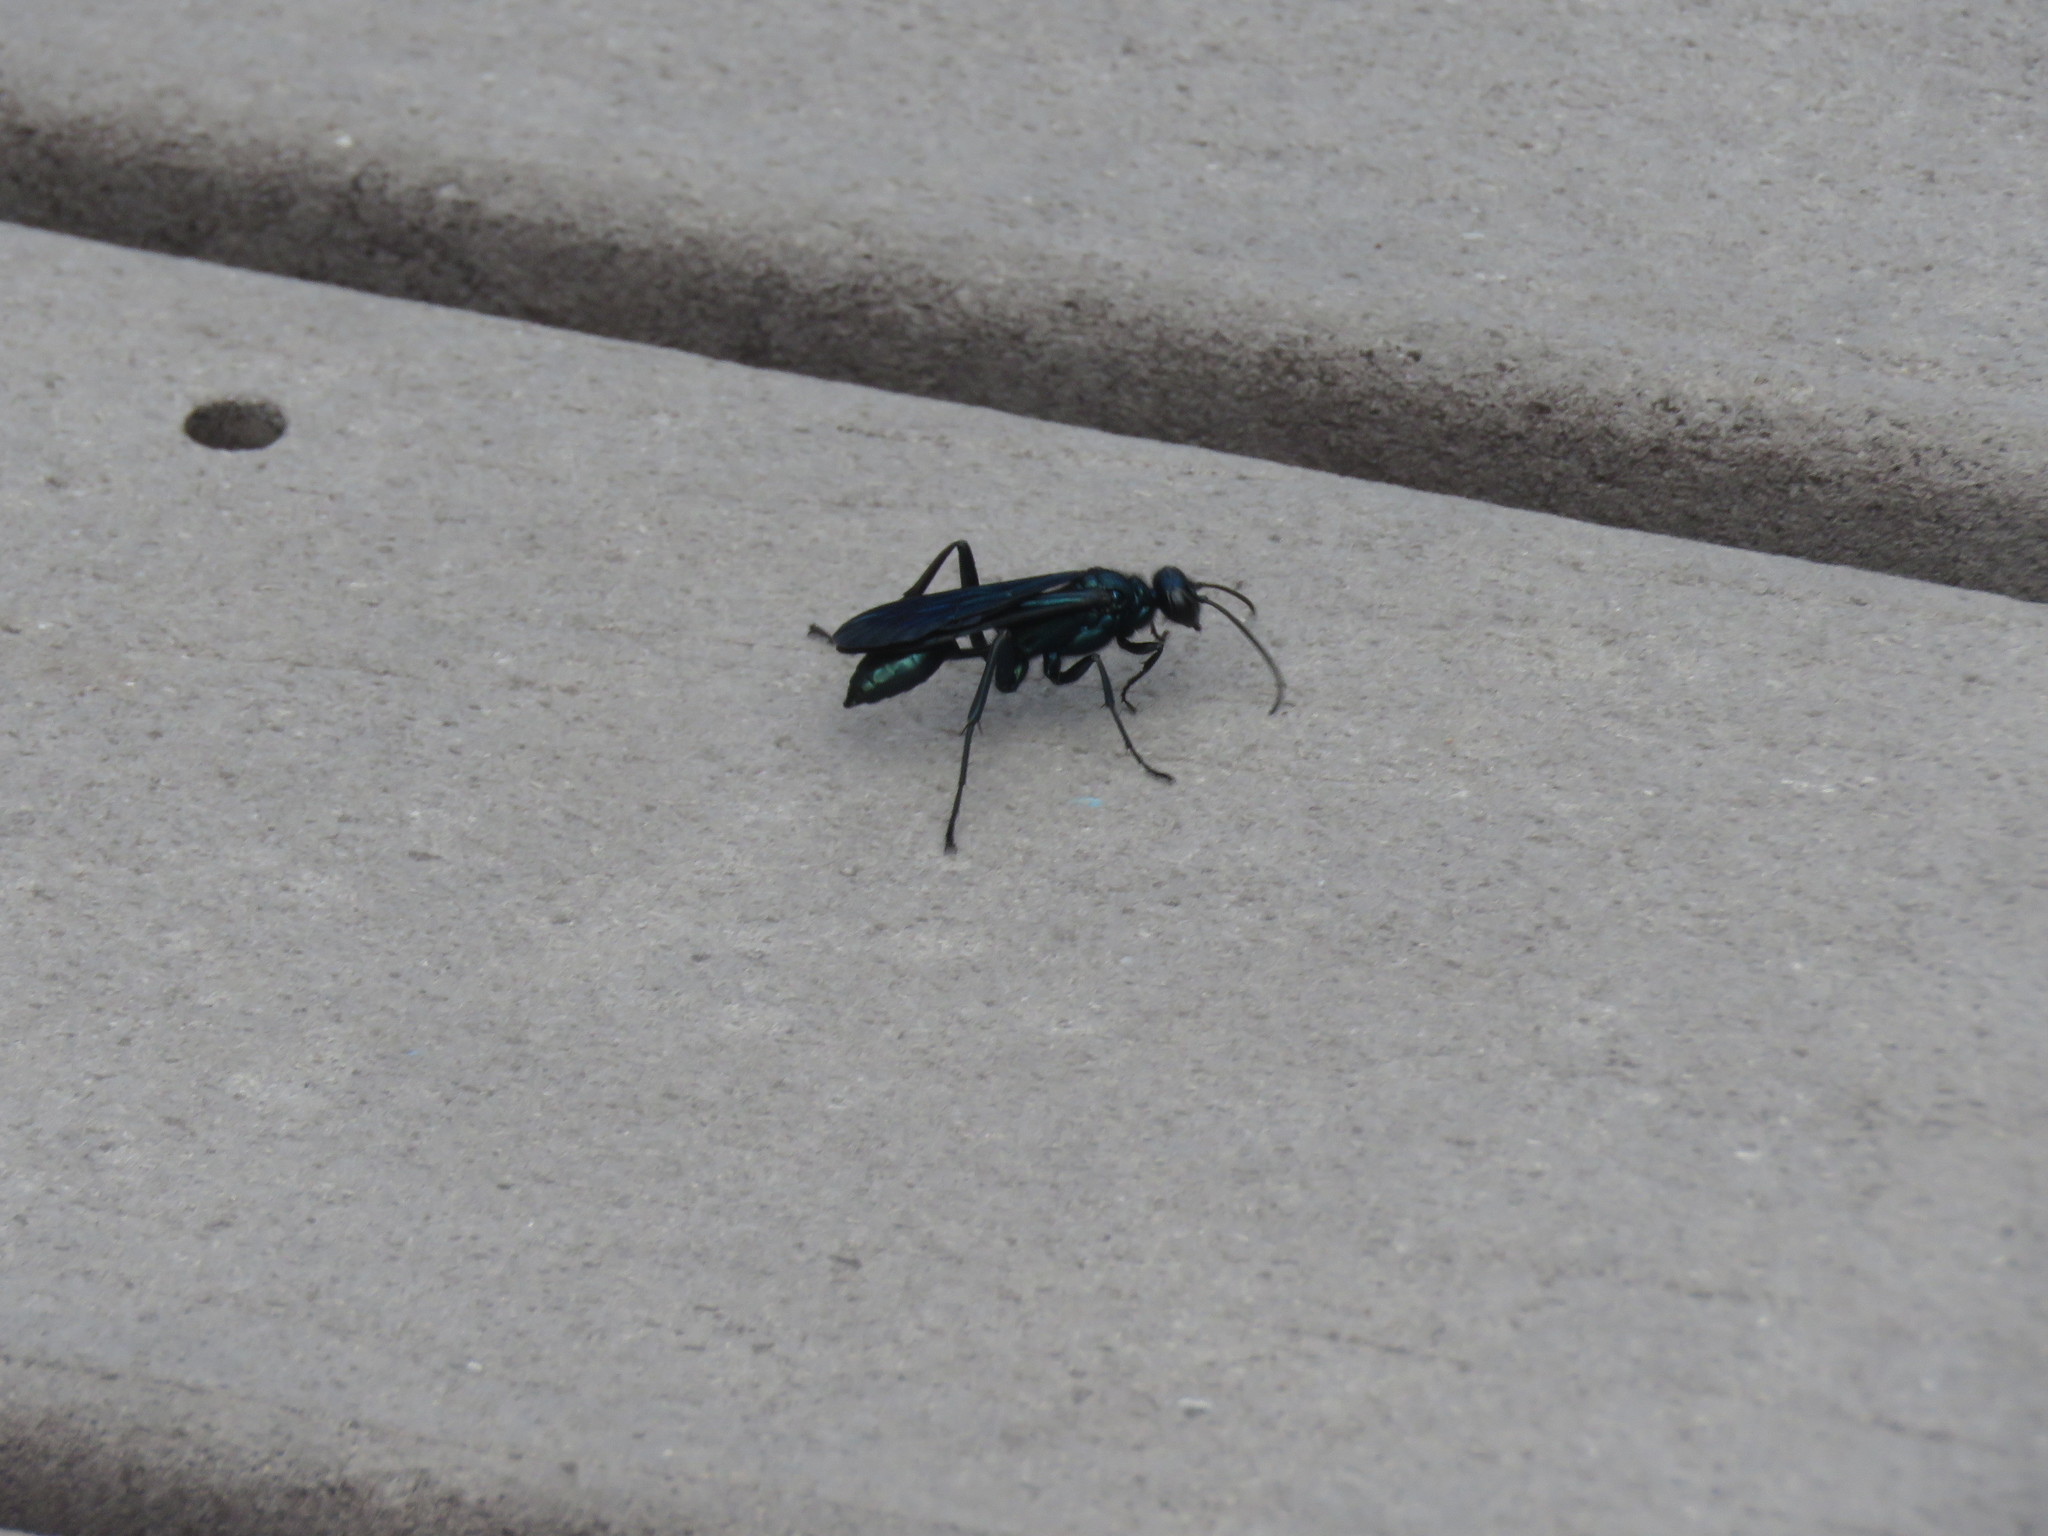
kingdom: Animalia
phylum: Arthropoda
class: Insecta
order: Hymenoptera
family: Sphecidae
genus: Chalybion
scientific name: Chalybion californicum
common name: Mud dauber
